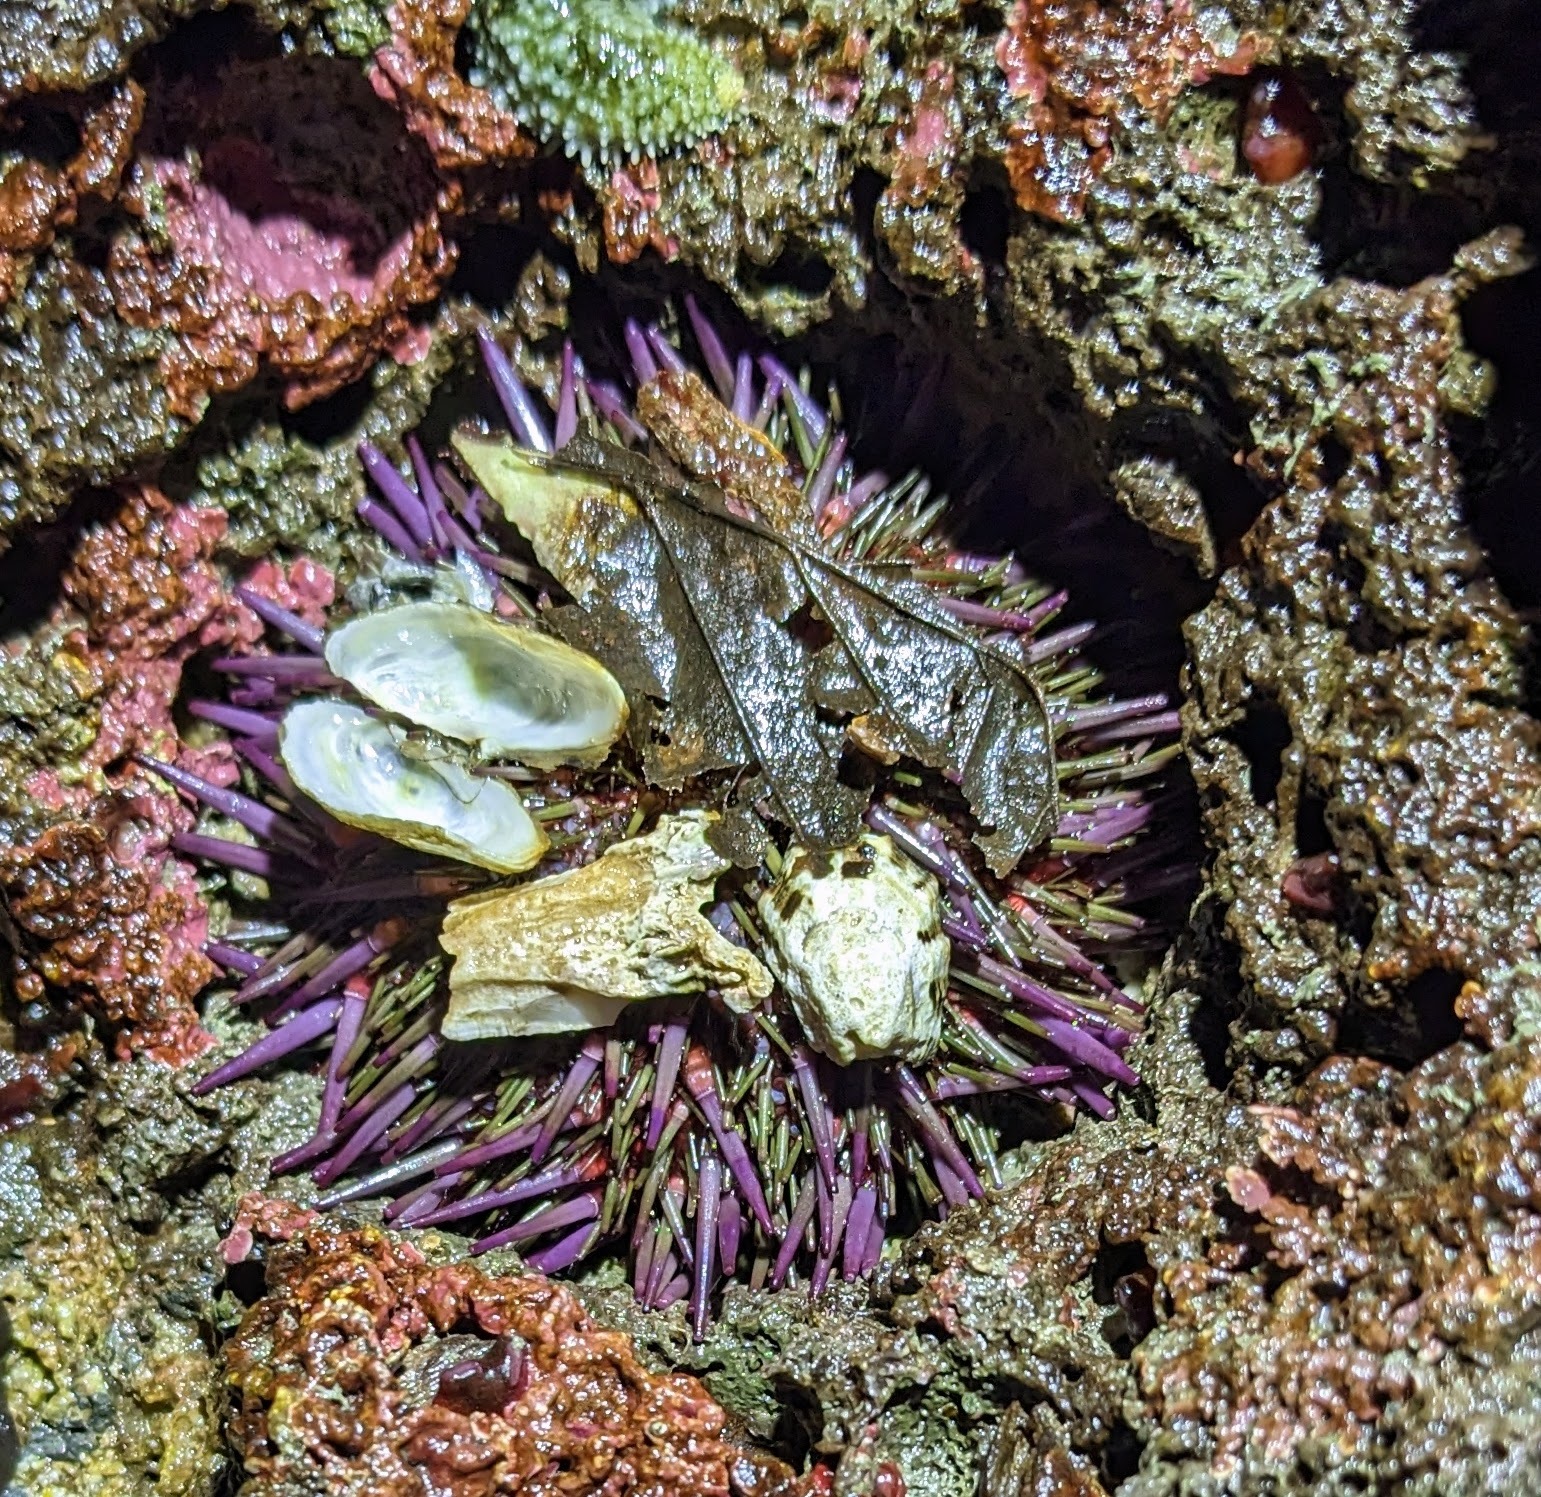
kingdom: Animalia
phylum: Echinodermata
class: Echinoidea
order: Camarodonta
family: Strongylocentrotidae
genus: Strongylocentrotus
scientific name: Strongylocentrotus purpuratus
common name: Purple sea urchin
